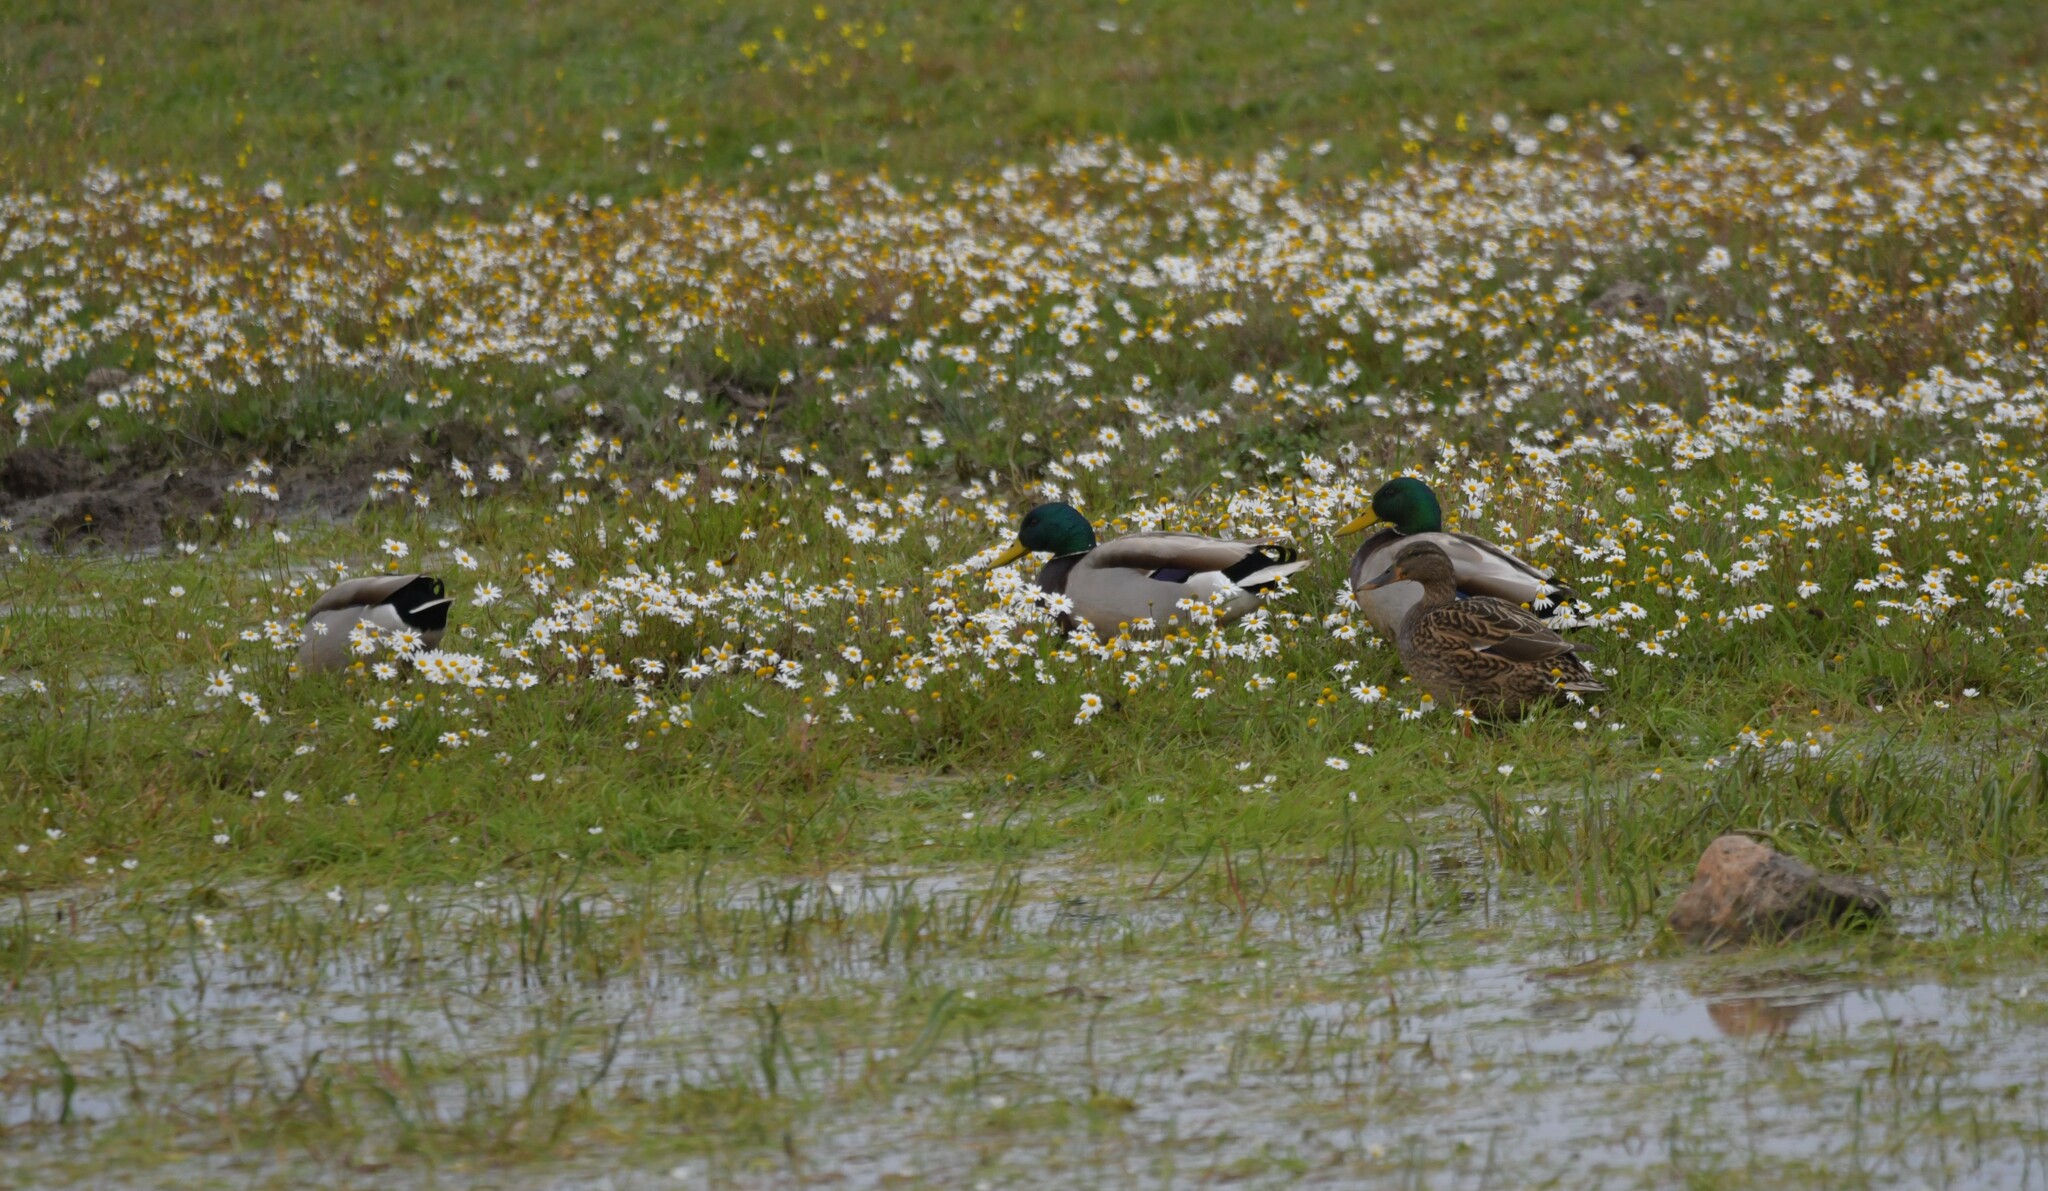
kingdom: Animalia
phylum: Chordata
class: Aves
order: Anseriformes
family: Anatidae
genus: Anas
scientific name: Anas platyrhynchos
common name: Mallard
